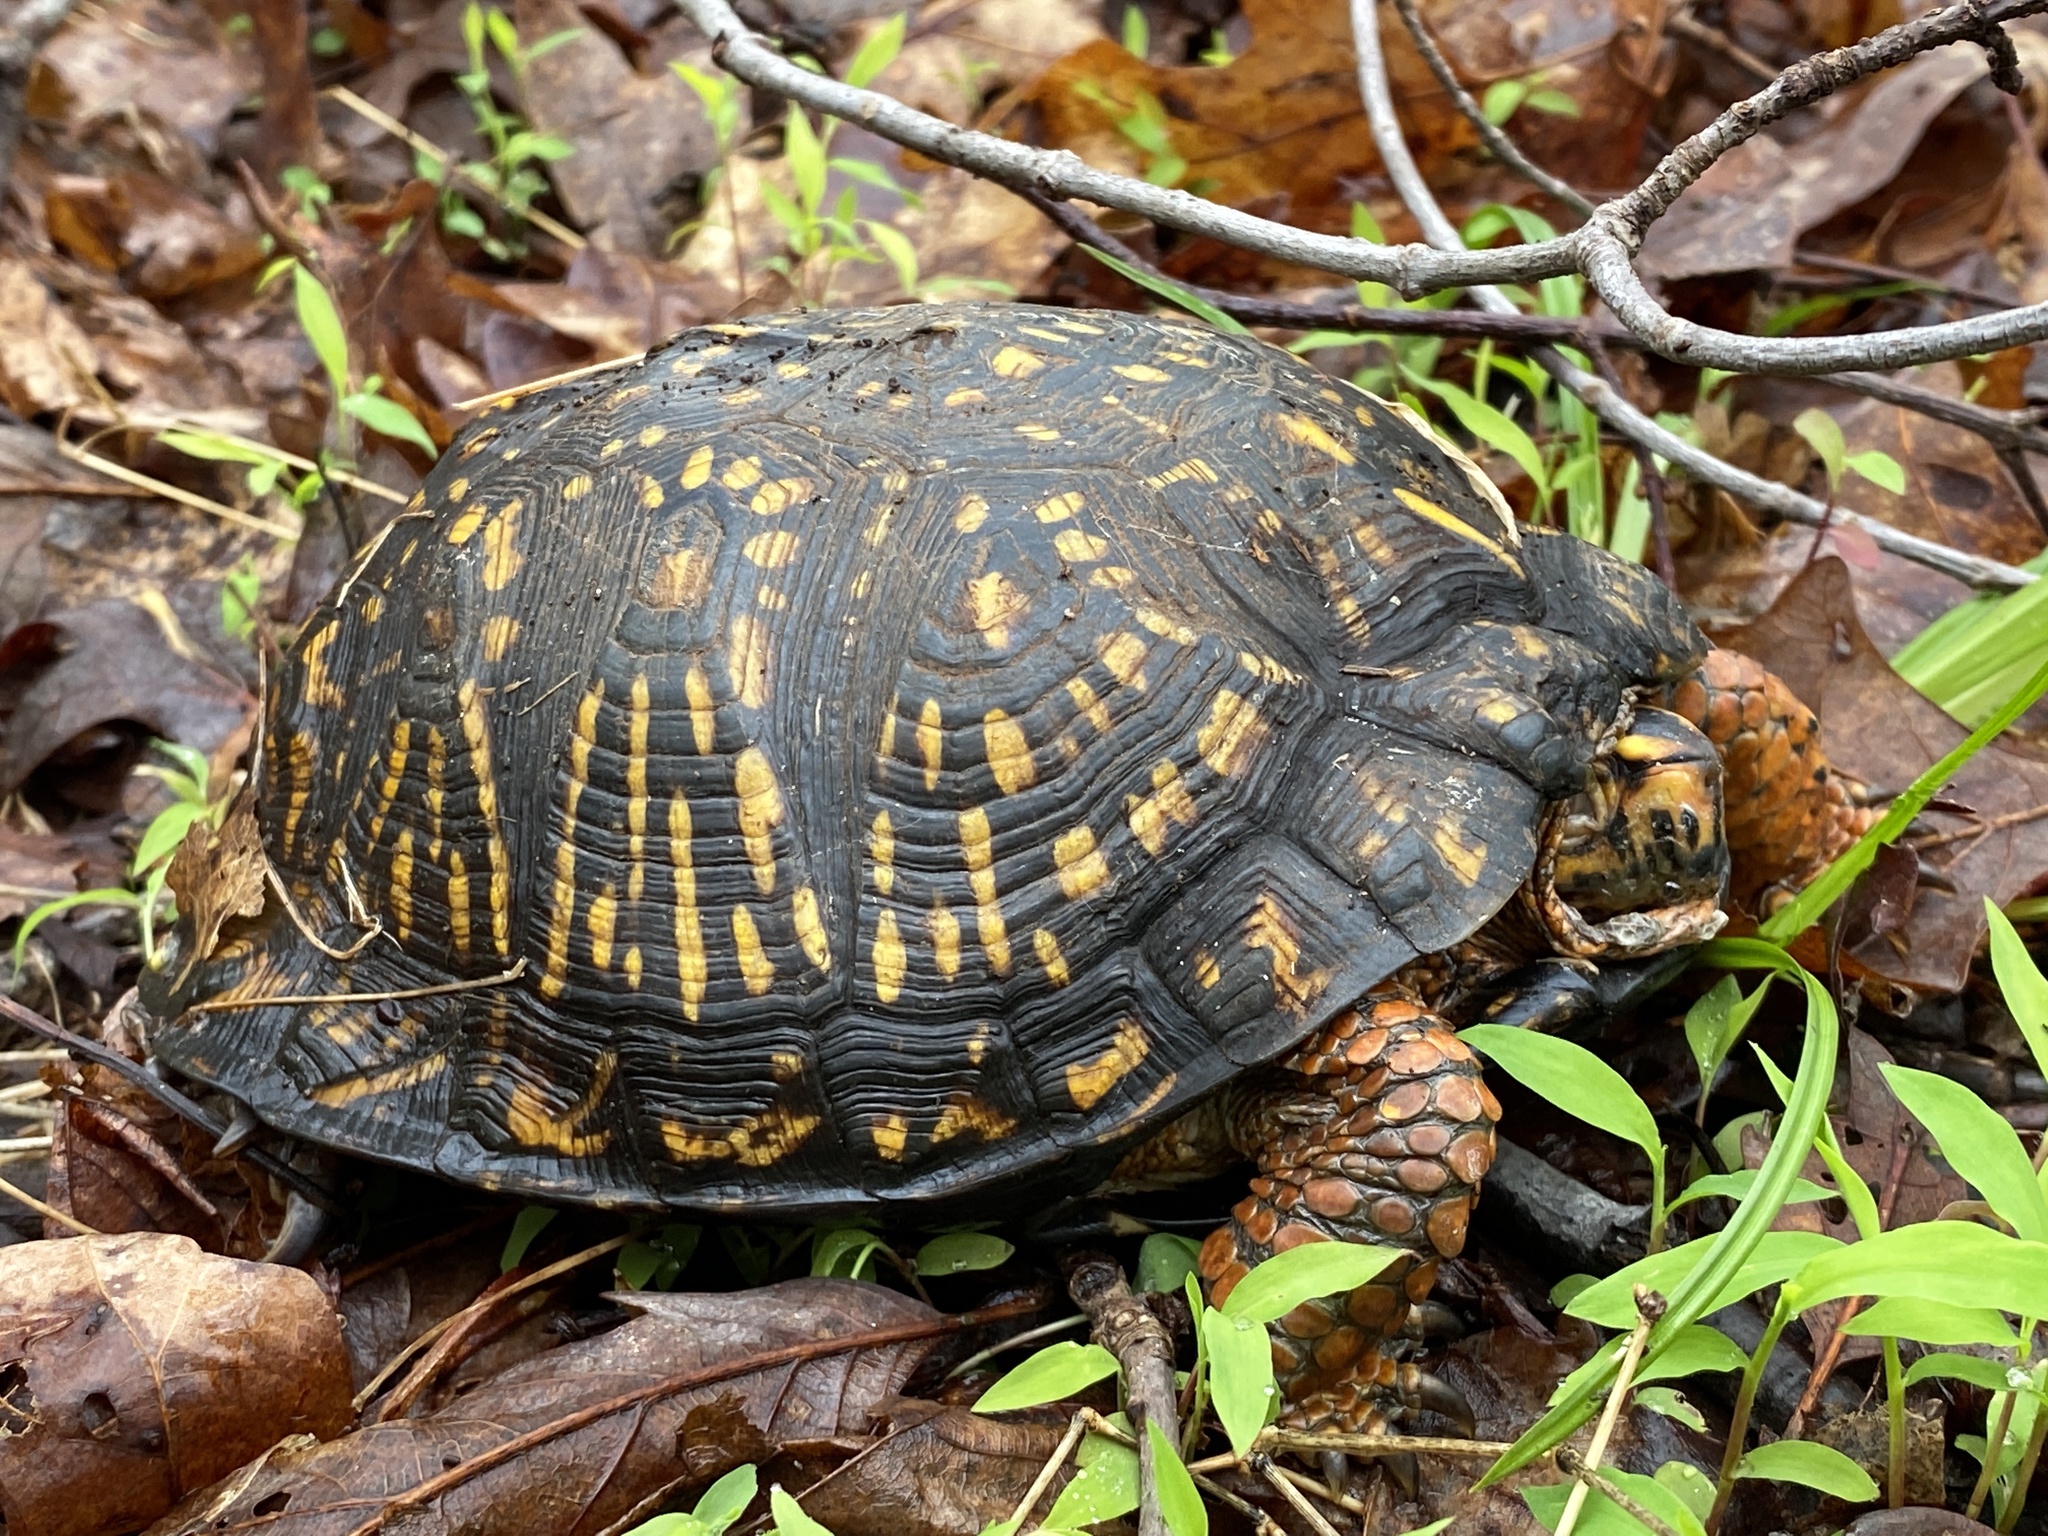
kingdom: Animalia
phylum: Chordata
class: Testudines
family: Emydidae
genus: Terrapene
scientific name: Terrapene carolina
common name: Common box turtle
